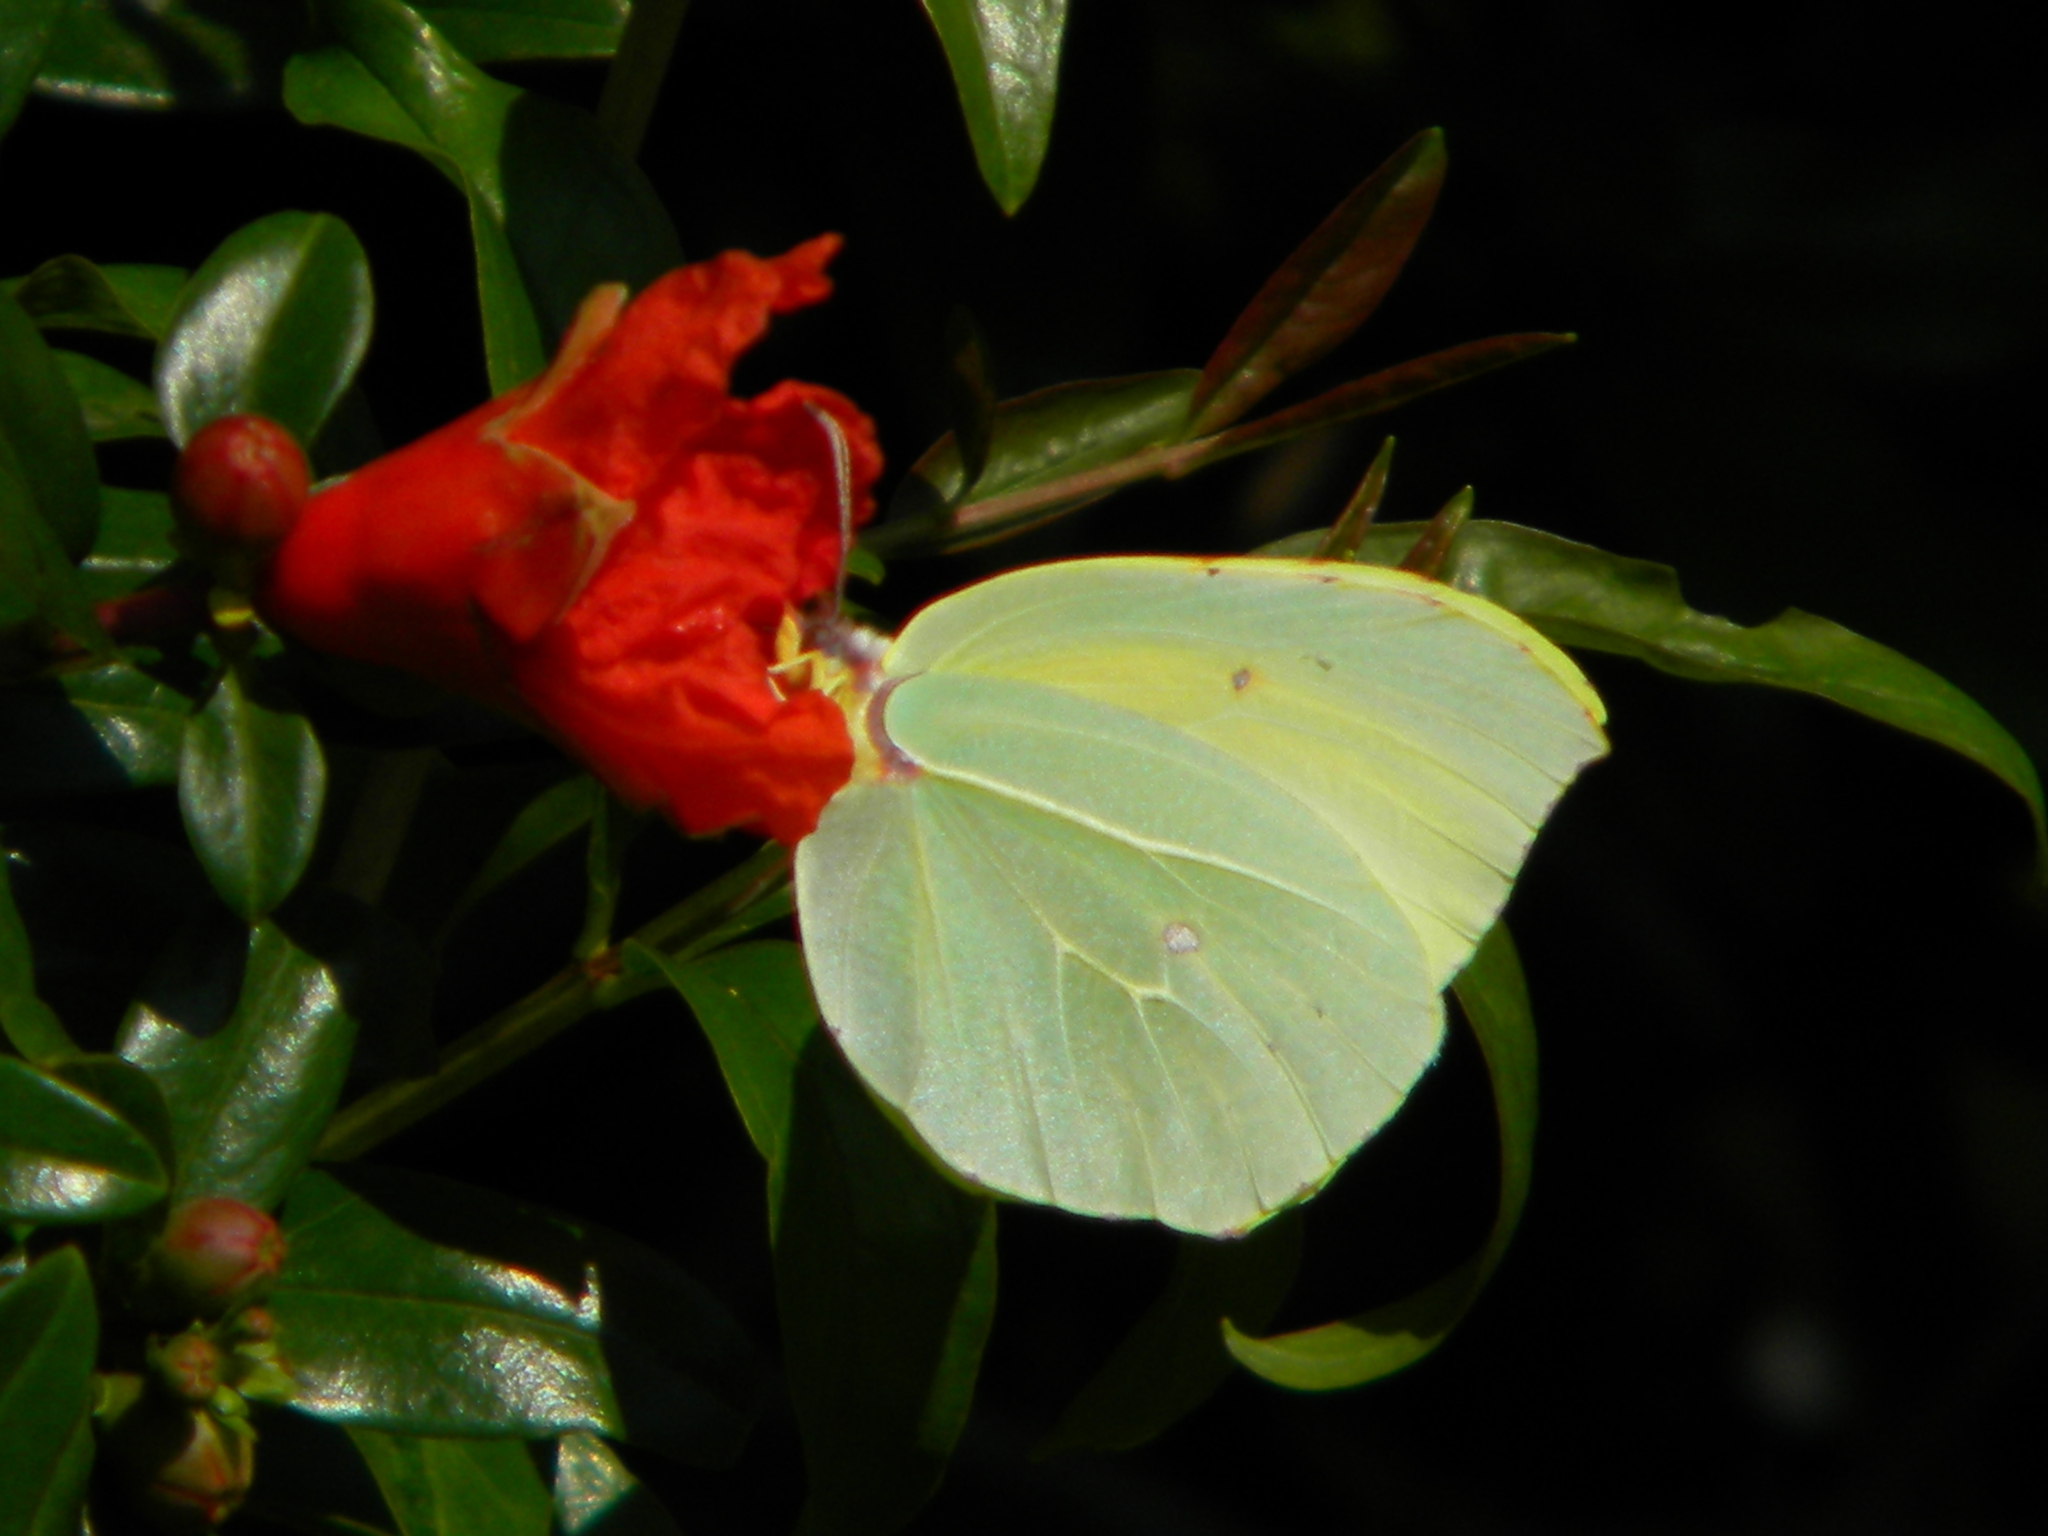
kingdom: Animalia
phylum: Arthropoda
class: Insecta
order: Lepidoptera
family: Pieridae
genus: Gonepteryx
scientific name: Gonepteryx cleopatra
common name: Cleopatra
